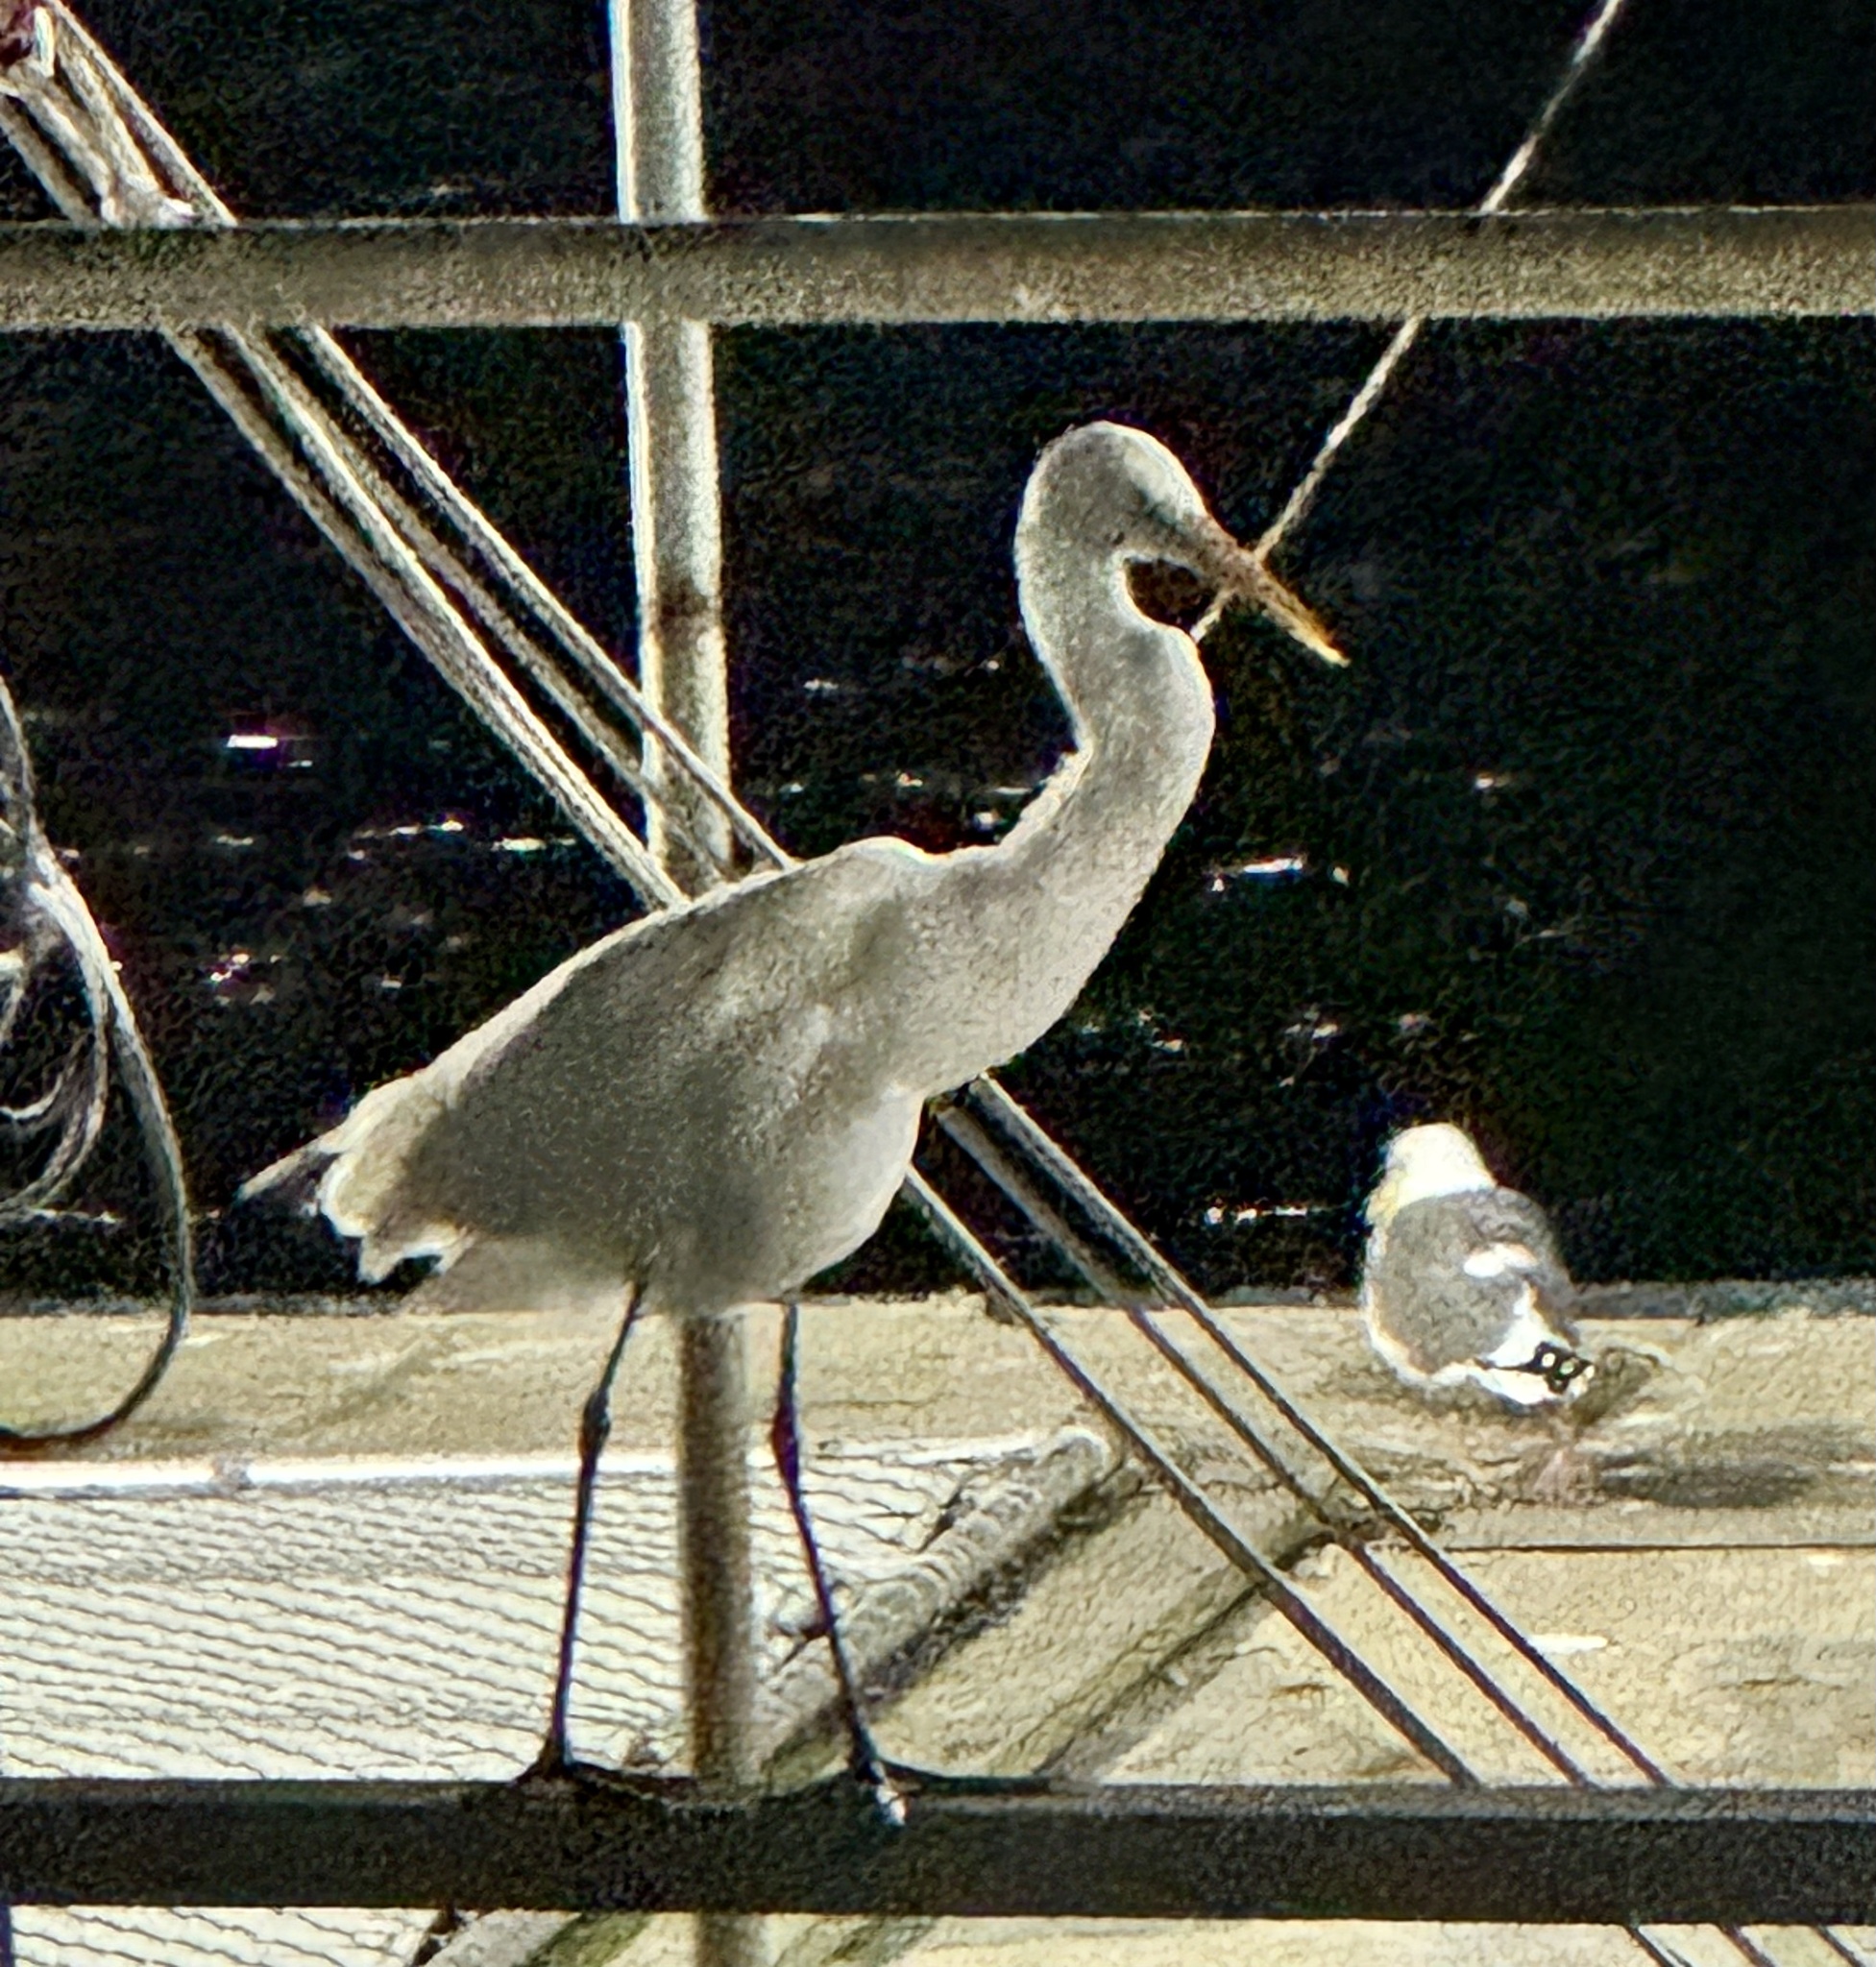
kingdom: Animalia
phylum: Chordata
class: Aves
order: Pelecaniformes
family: Ardeidae
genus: Ardea
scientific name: Ardea alba
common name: Great egret
